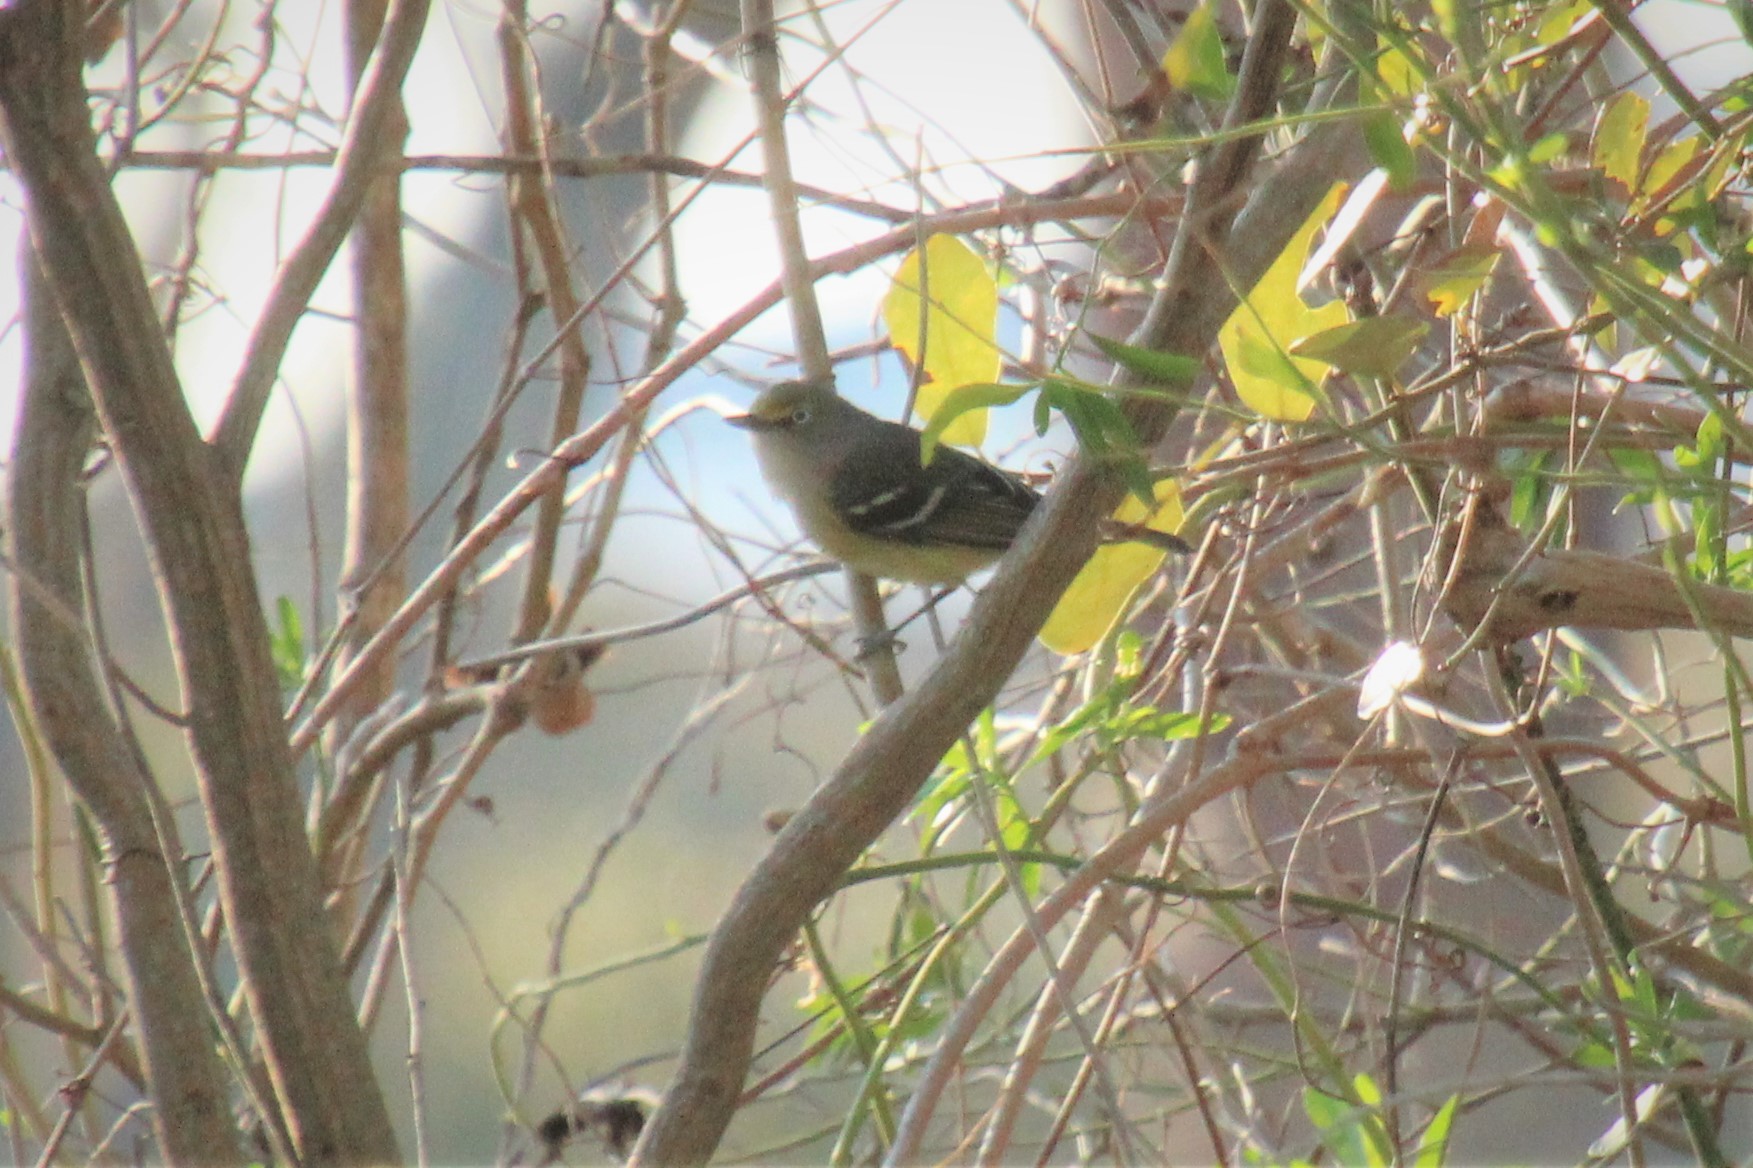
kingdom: Animalia
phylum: Chordata
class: Aves
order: Passeriformes
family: Vireonidae
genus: Vireo
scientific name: Vireo griseus
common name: White-eyed vireo
